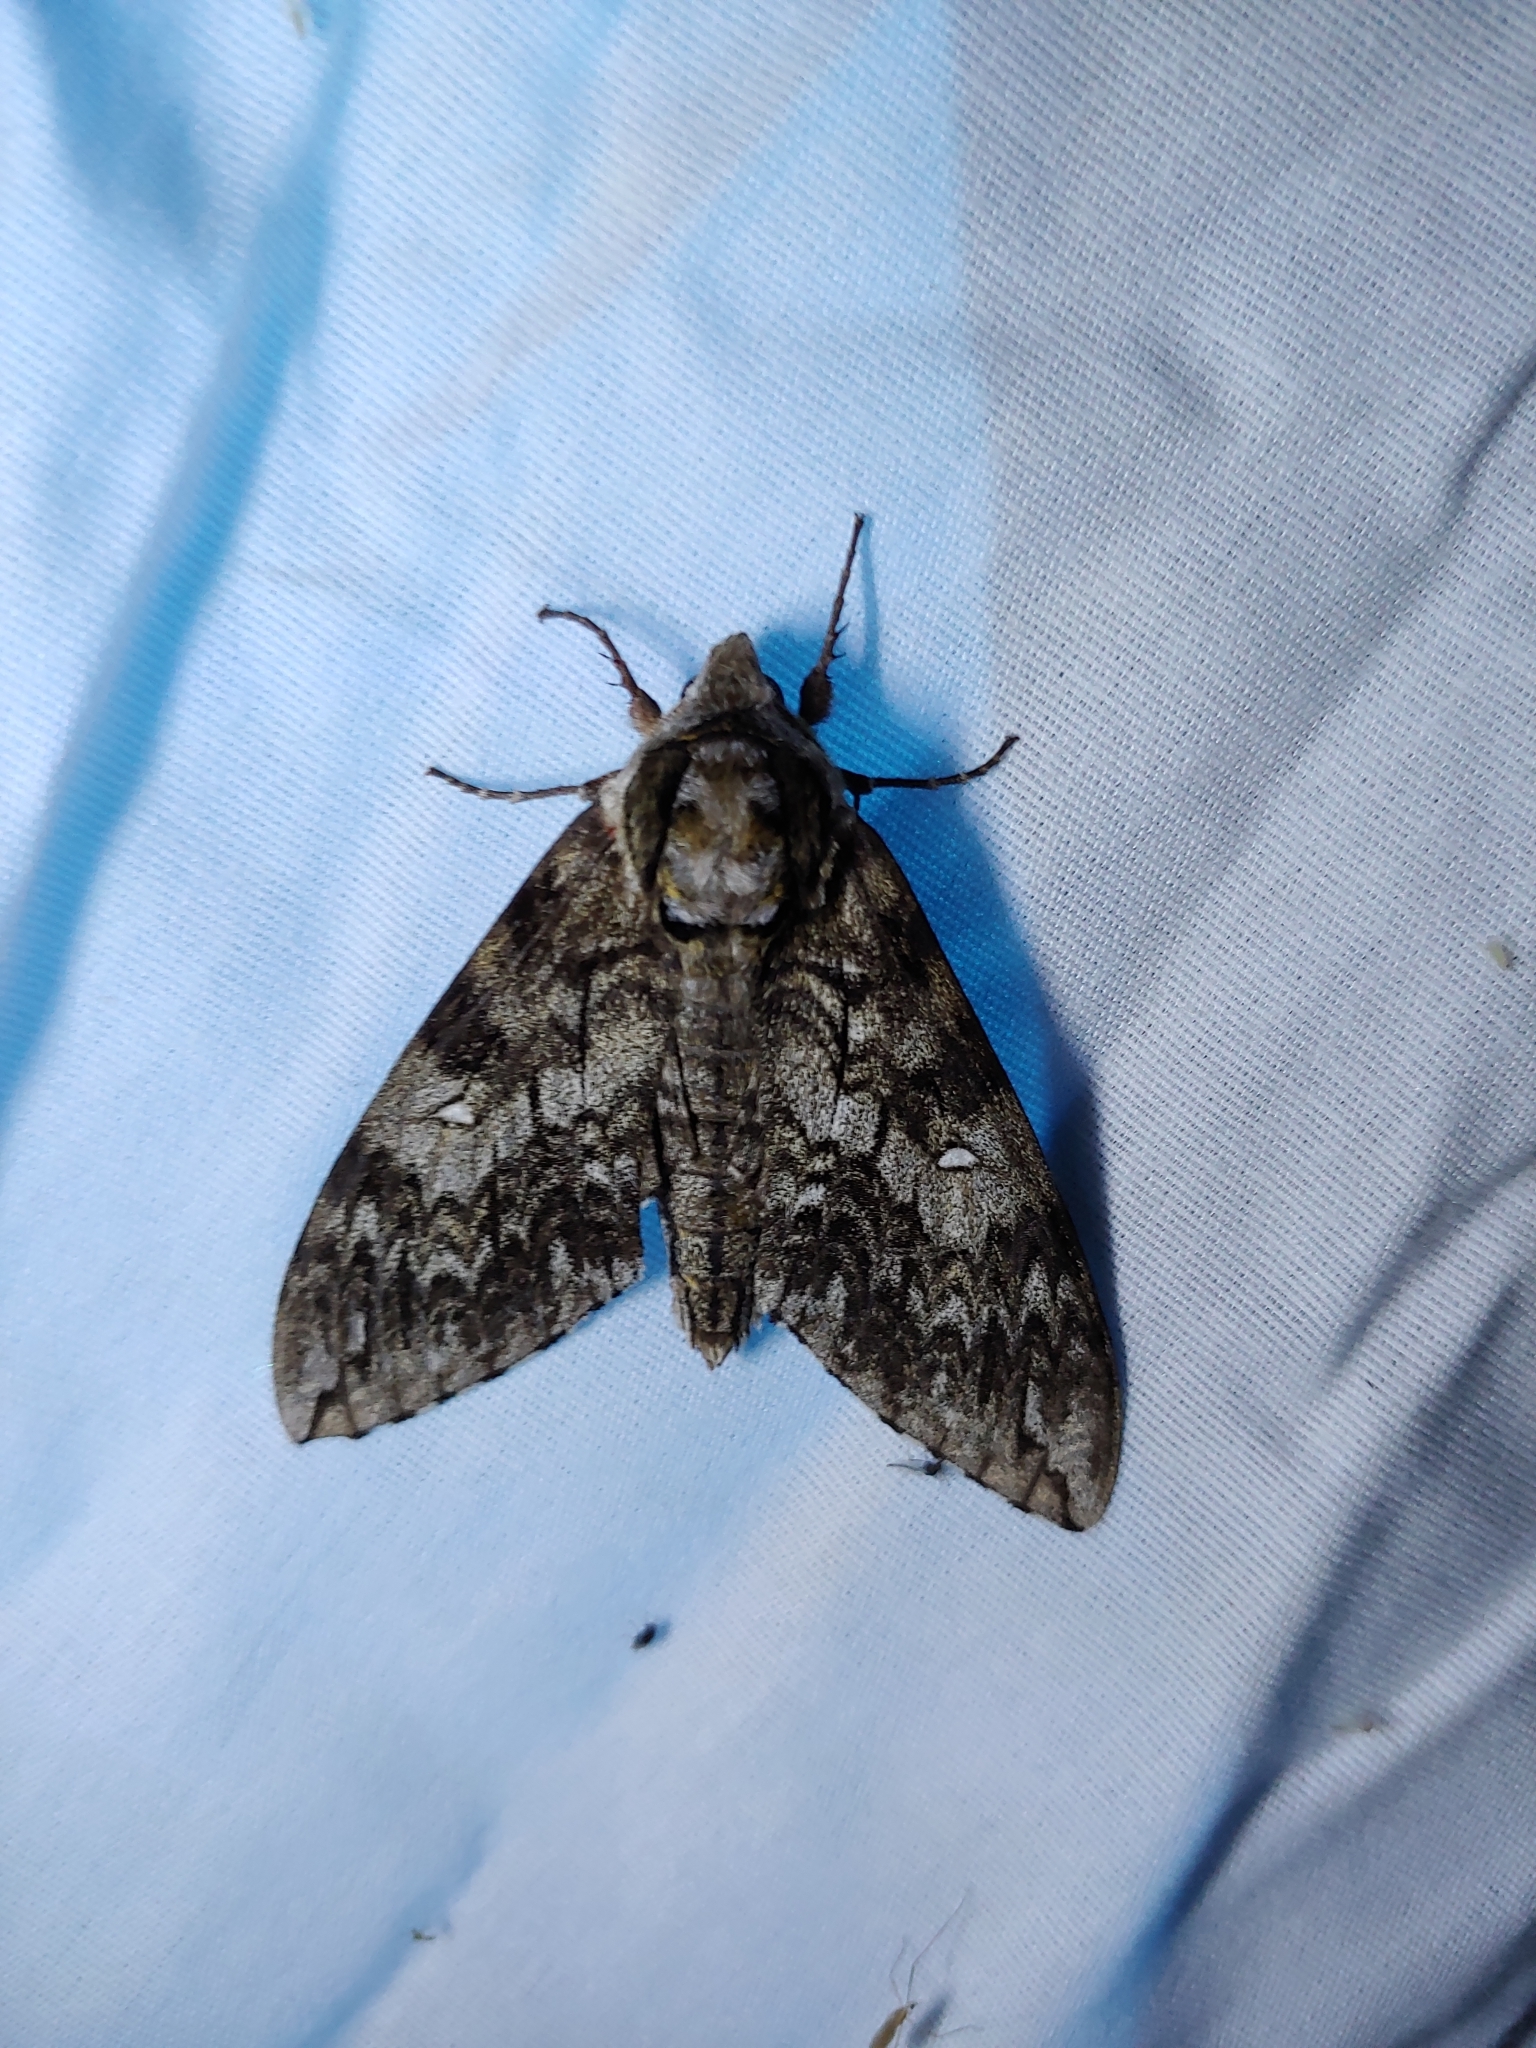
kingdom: Animalia
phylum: Arthropoda
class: Insecta
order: Lepidoptera
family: Sphingidae
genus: Ceratomia
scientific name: Ceratomia undulosa
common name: Waved sphinx
